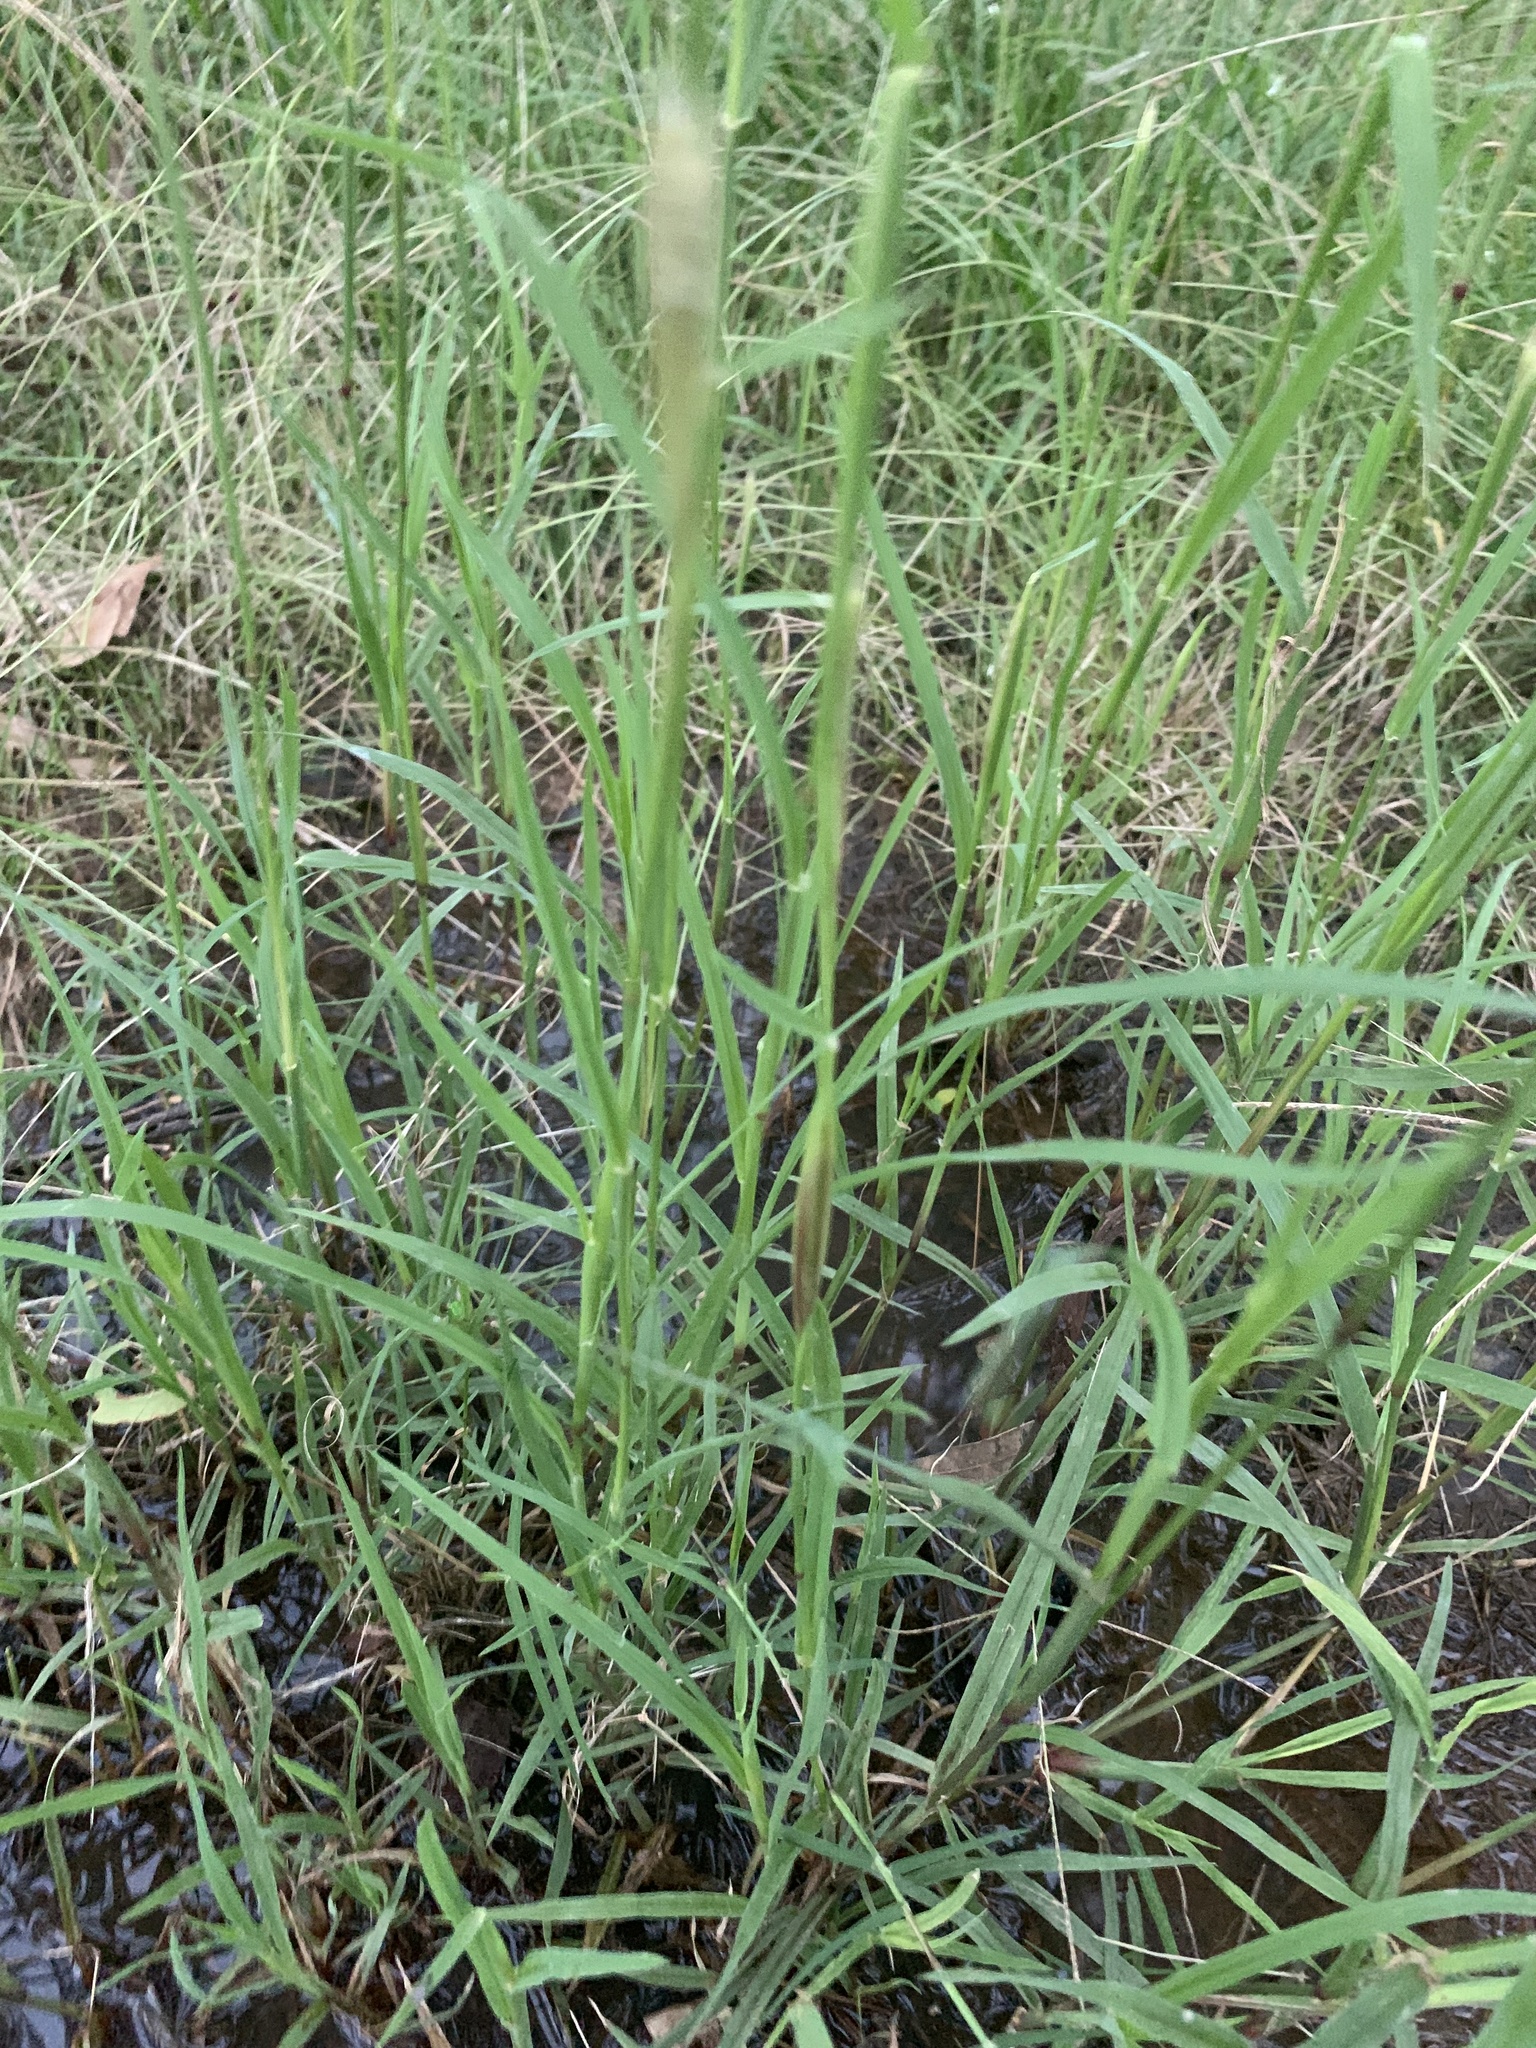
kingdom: Plantae
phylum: Tracheophyta
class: Liliopsida
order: Poales
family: Poaceae
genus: Chloris
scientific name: Chloris virgata
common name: Feathery rhodes-grass
